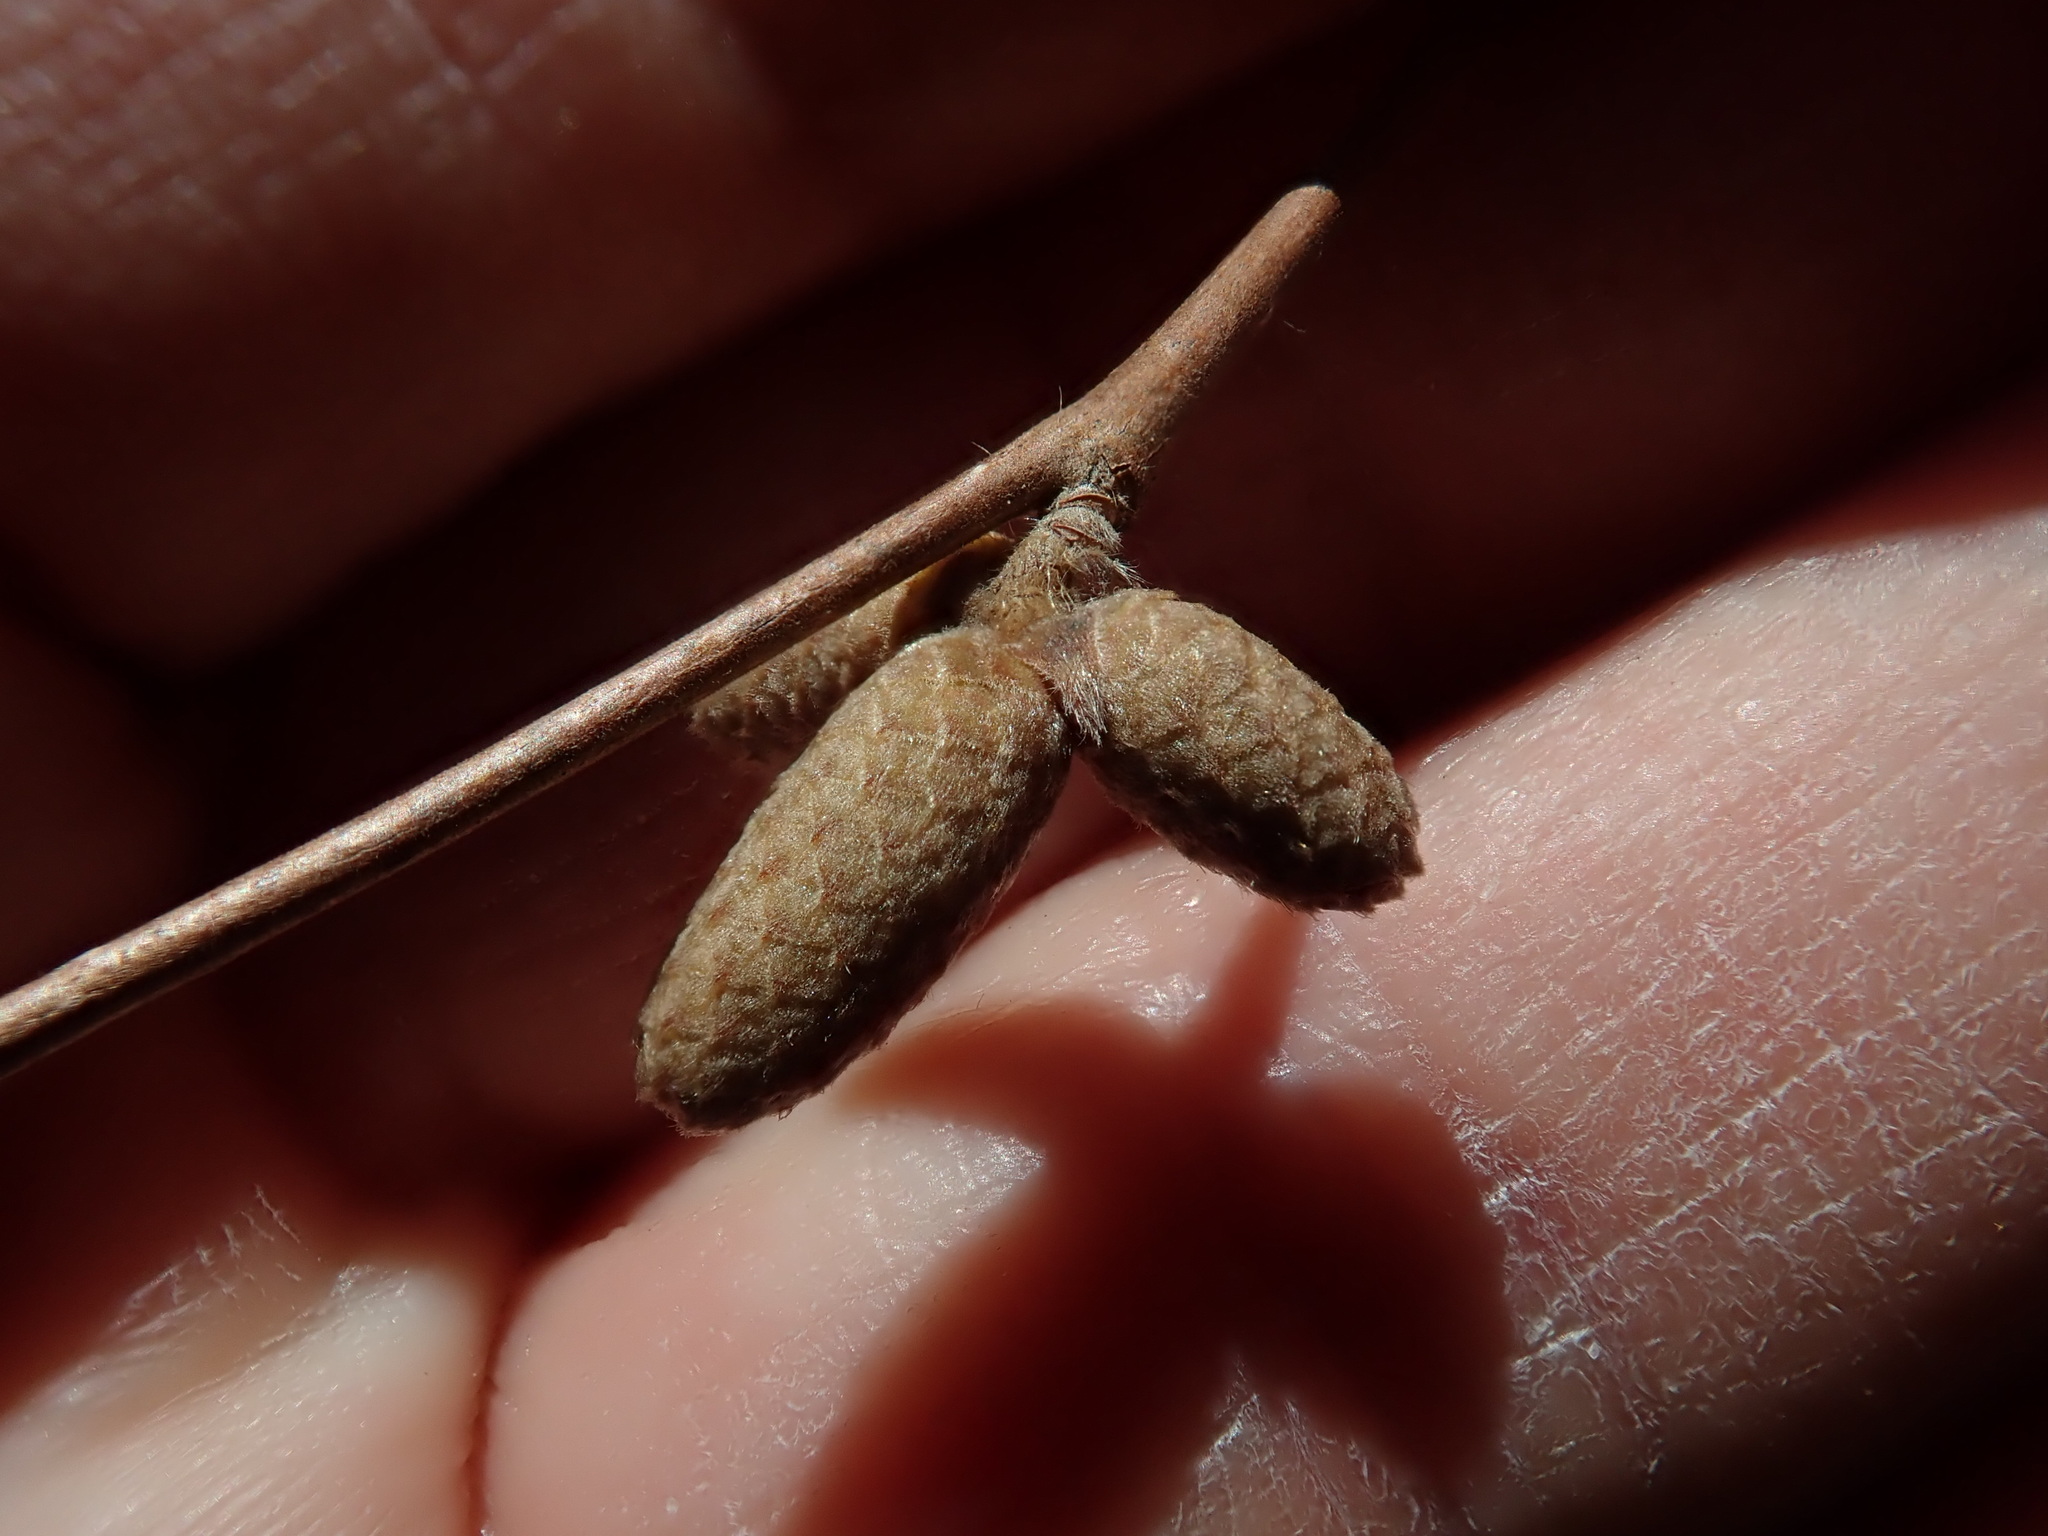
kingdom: Plantae
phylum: Tracheophyta
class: Magnoliopsida
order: Fagales
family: Betulaceae
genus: Corylus
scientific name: Corylus cornuta
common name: Beaked hazel
